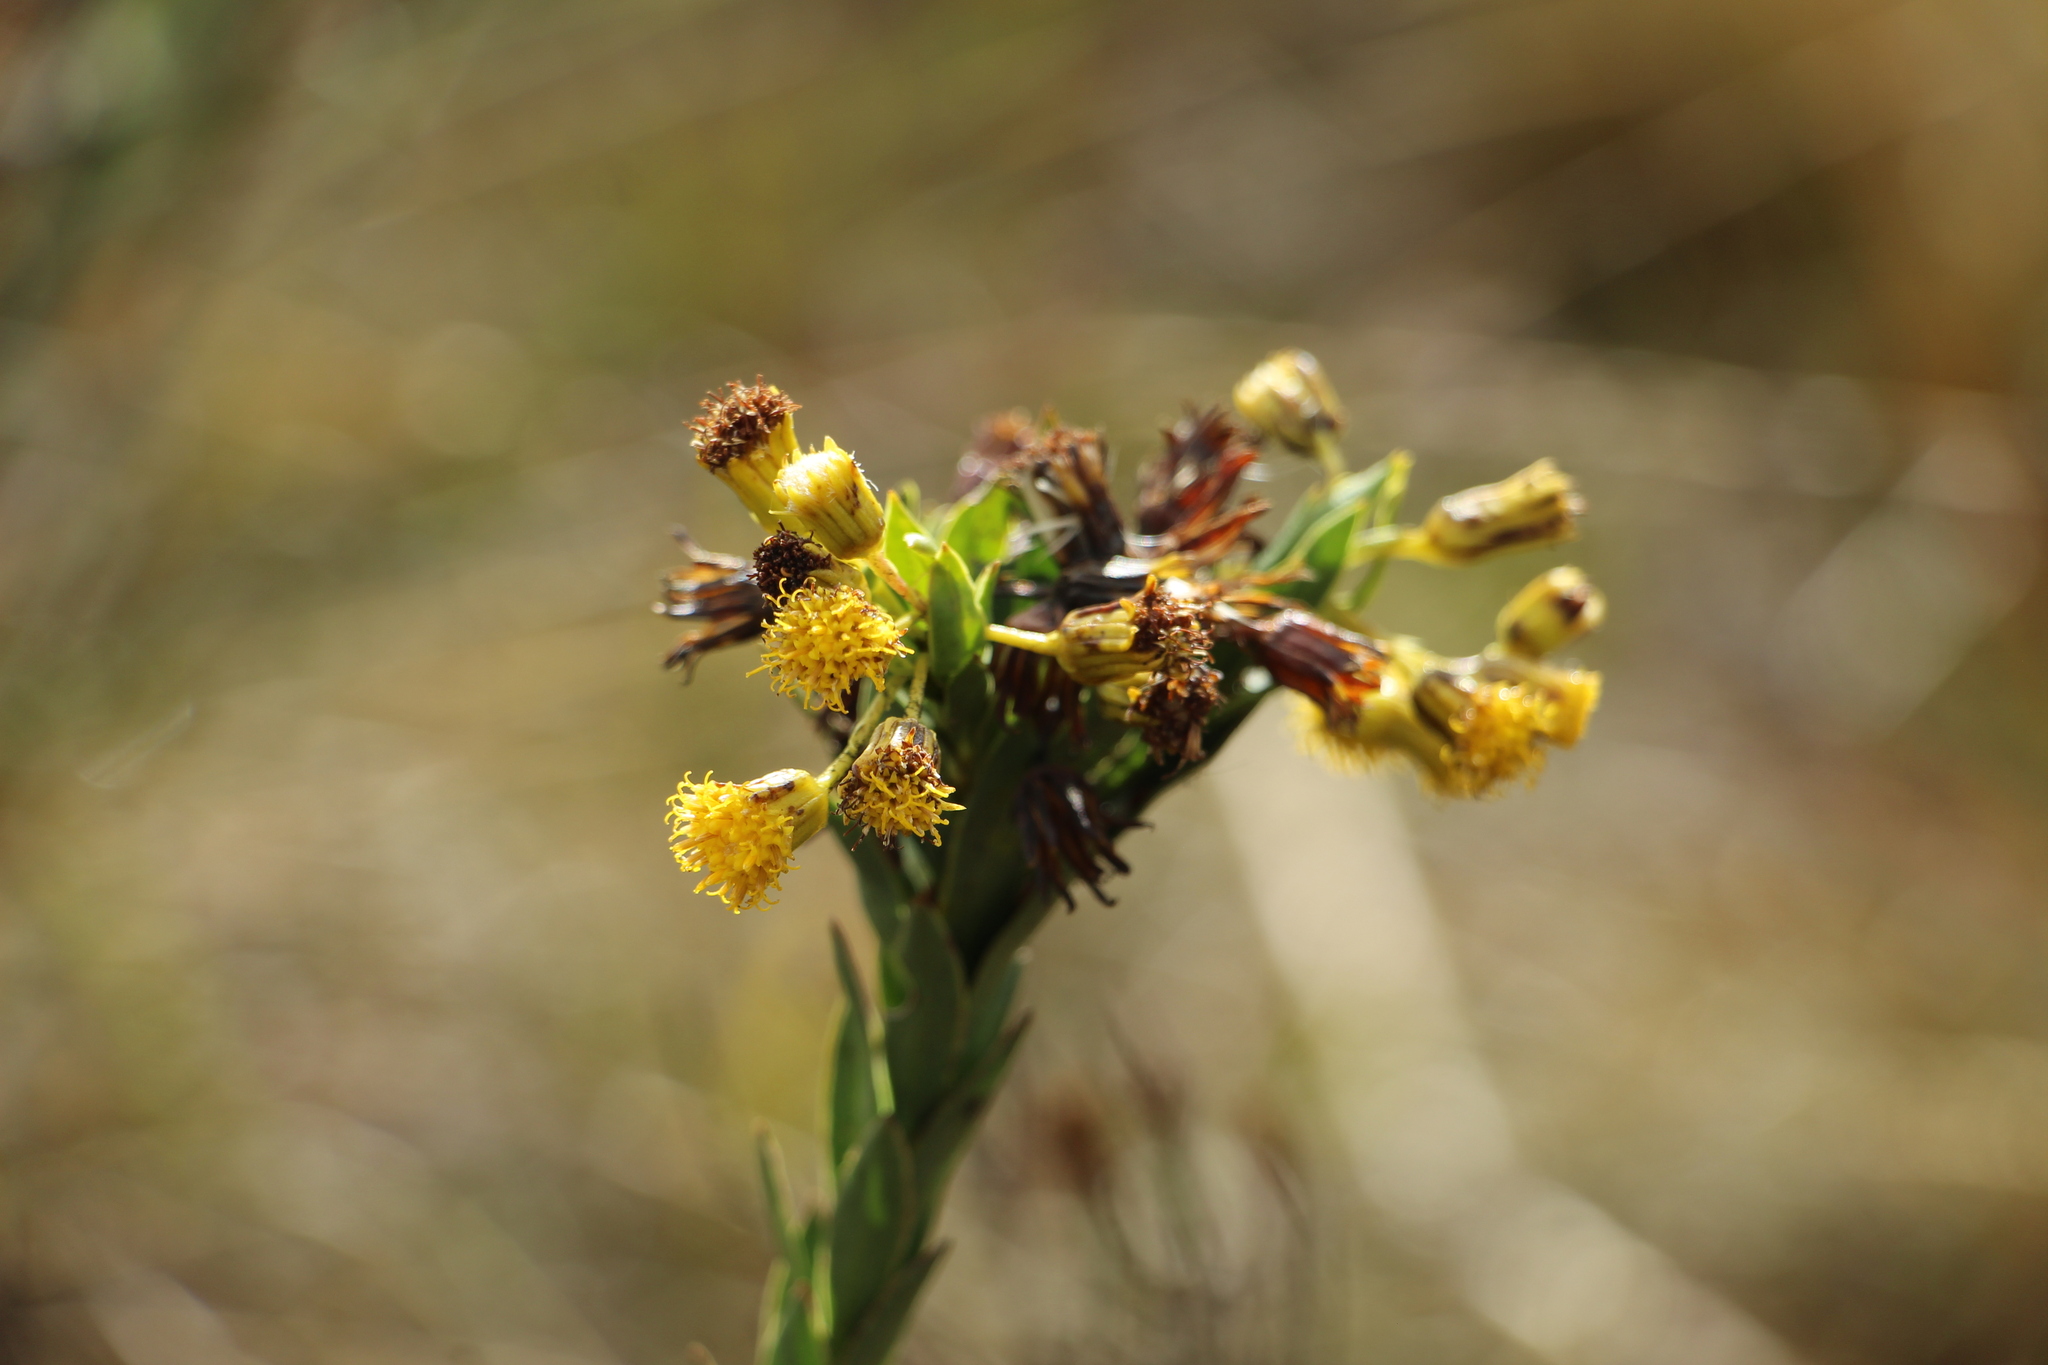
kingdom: Plantae
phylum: Tracheophyta
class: Magnoliopsida
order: Asterales
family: Asteraceae
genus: Monticalia
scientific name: Monticalia vaccinioides
